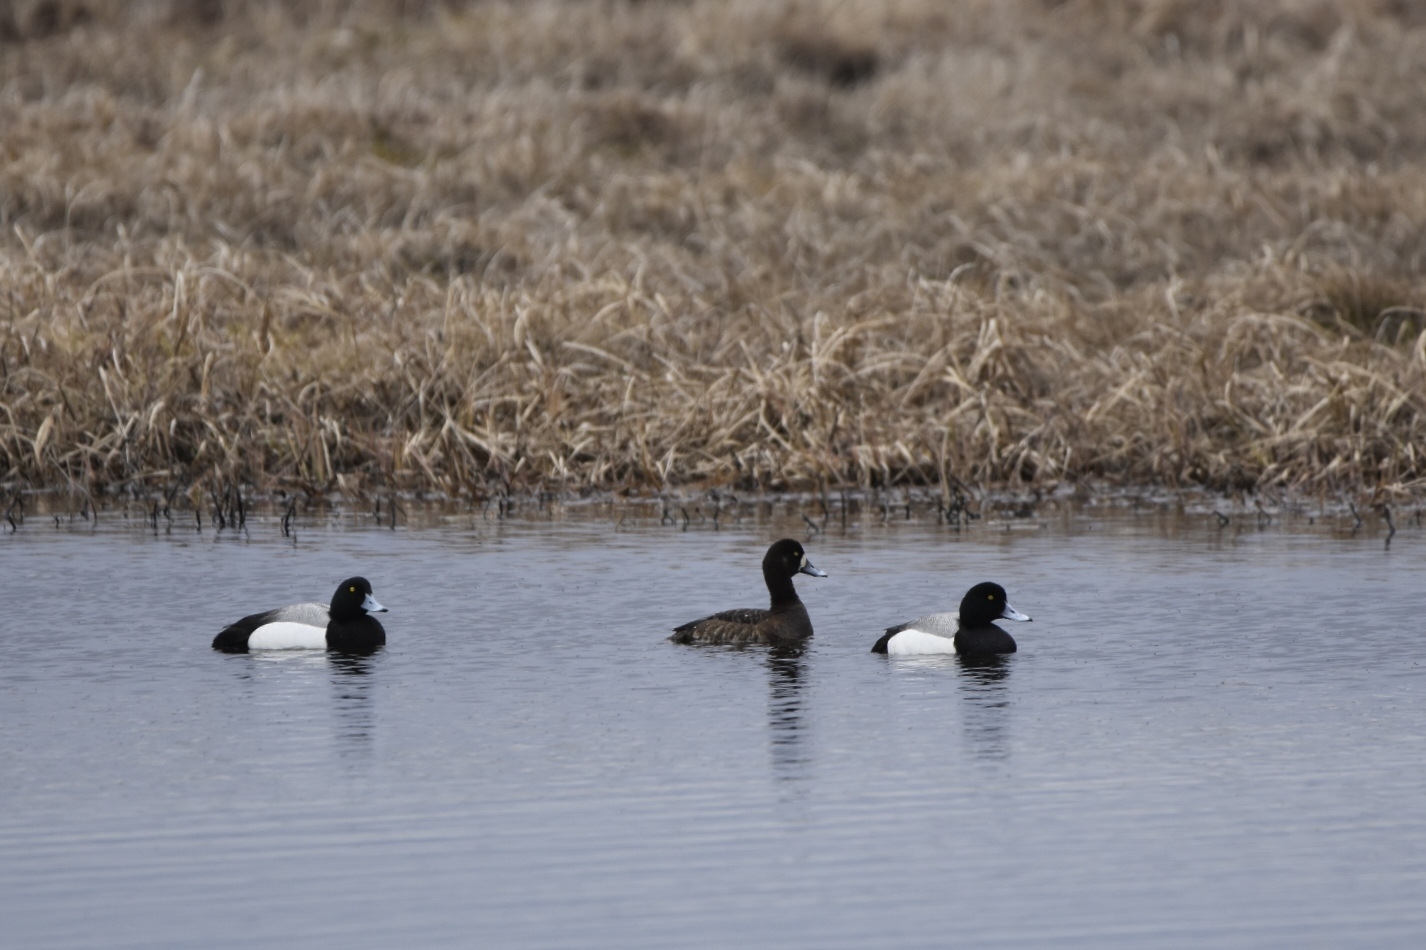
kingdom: Animalia
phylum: Chordata
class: Aves
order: Anseriformes
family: Anatidae
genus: Aythya
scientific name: Aythya marila
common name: Greater scaup
